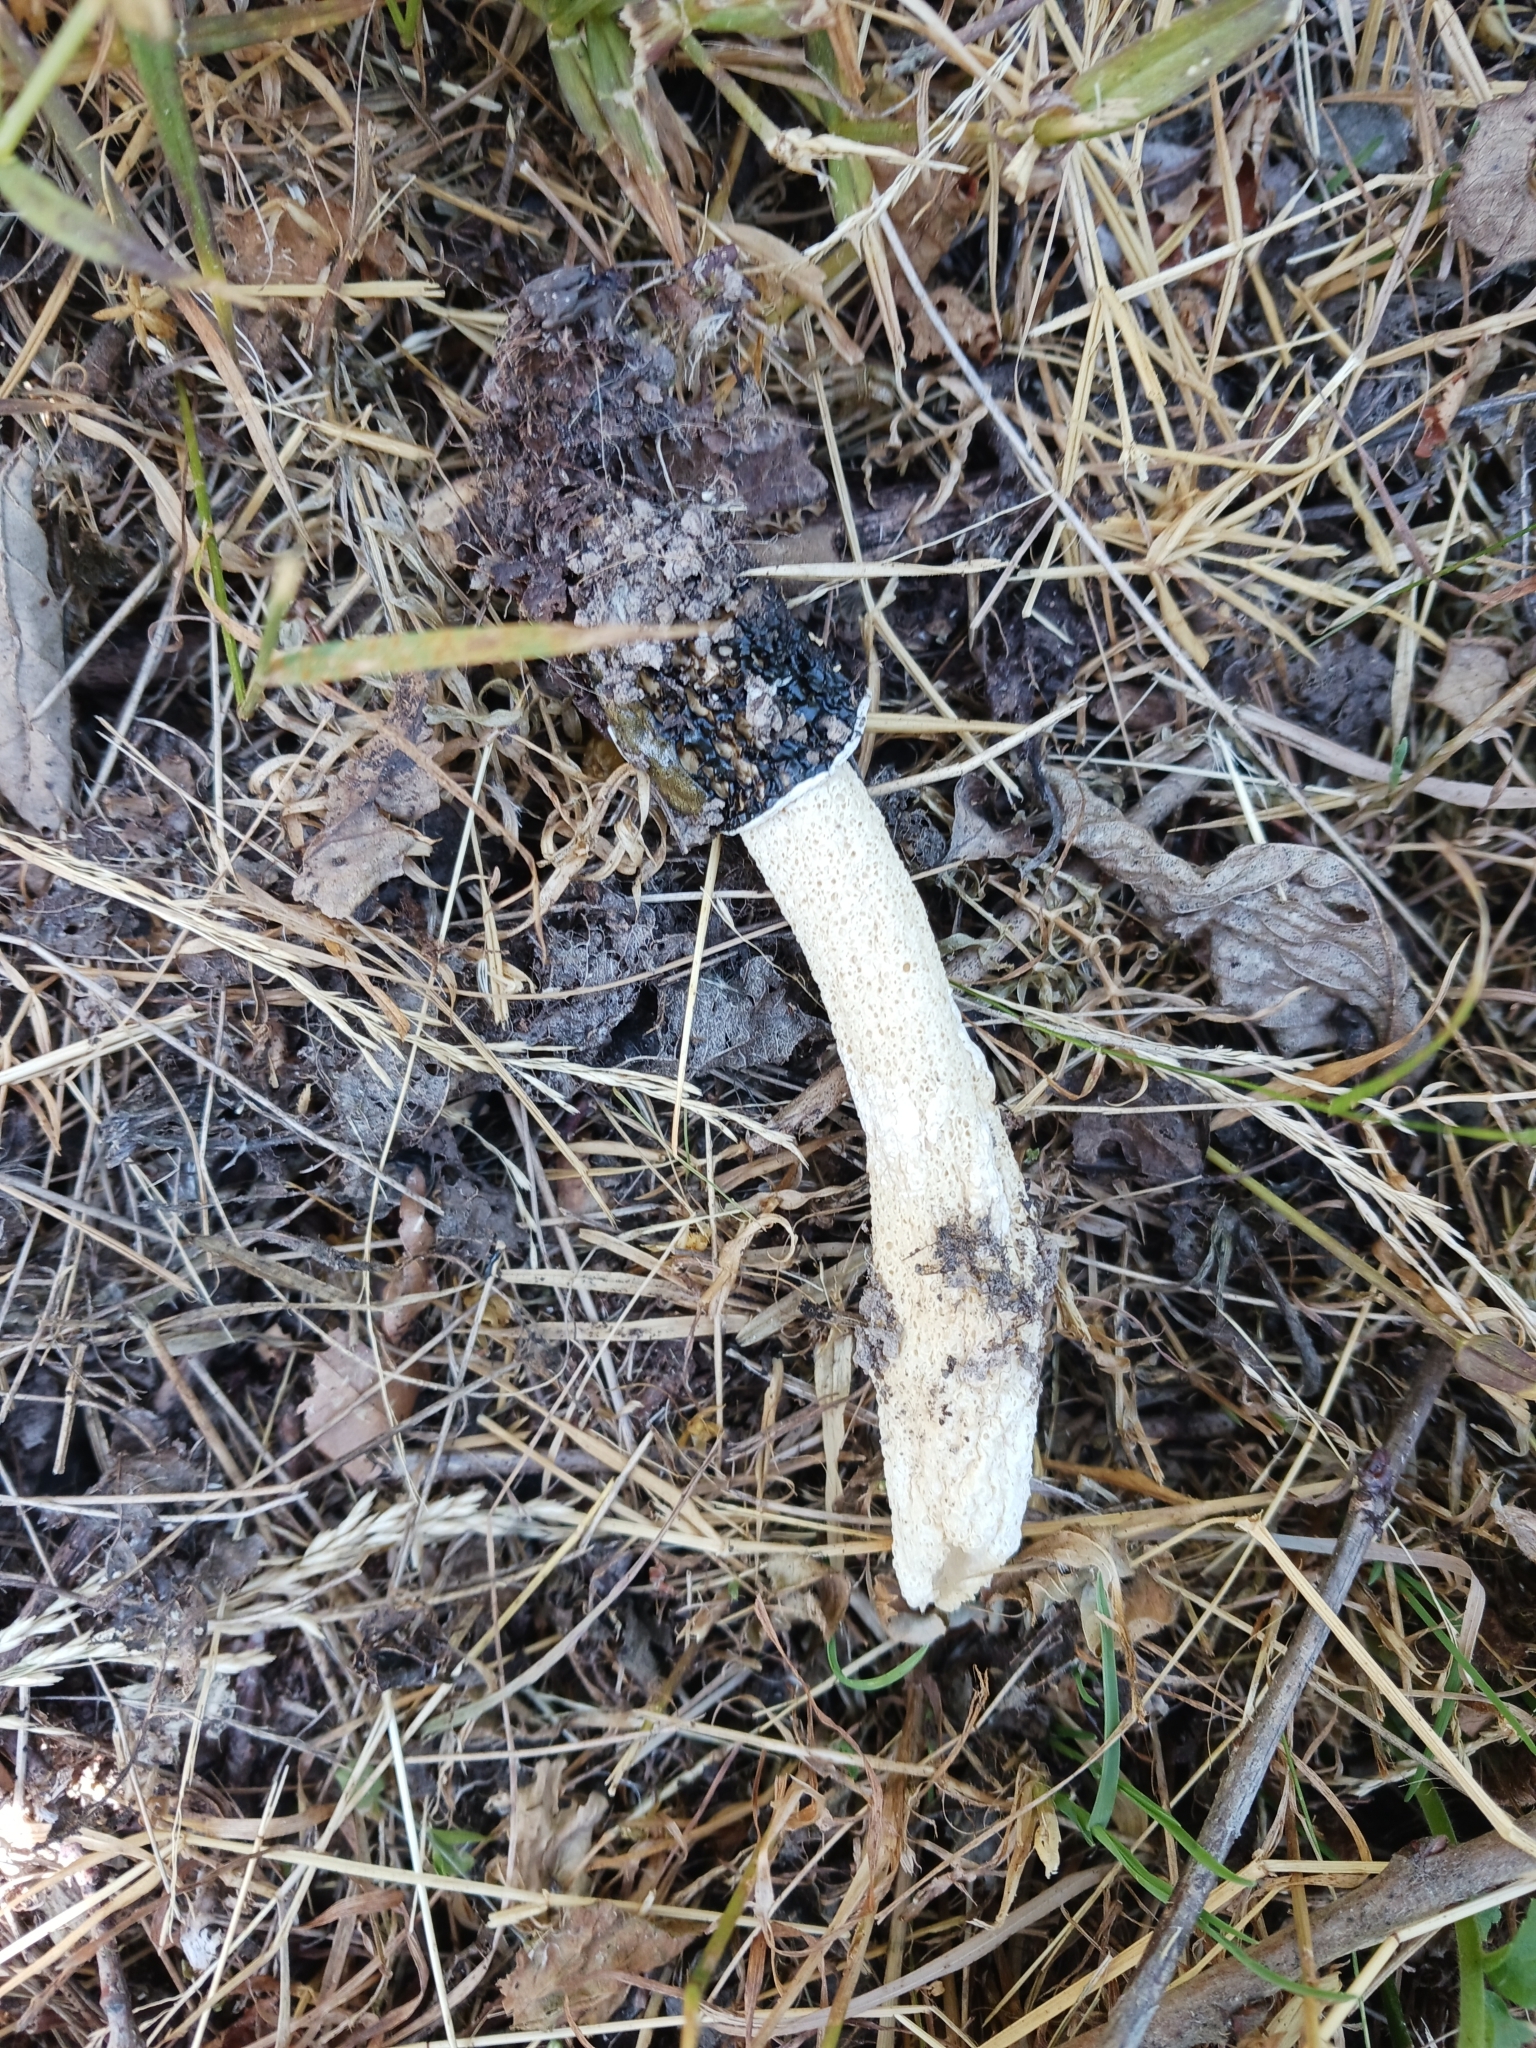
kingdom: Fungi
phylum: Basidiomycota
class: Agaricomycetes
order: Phallales
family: Phallaceae
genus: Phallus
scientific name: Phallus impudicus
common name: Common stinkhorn
